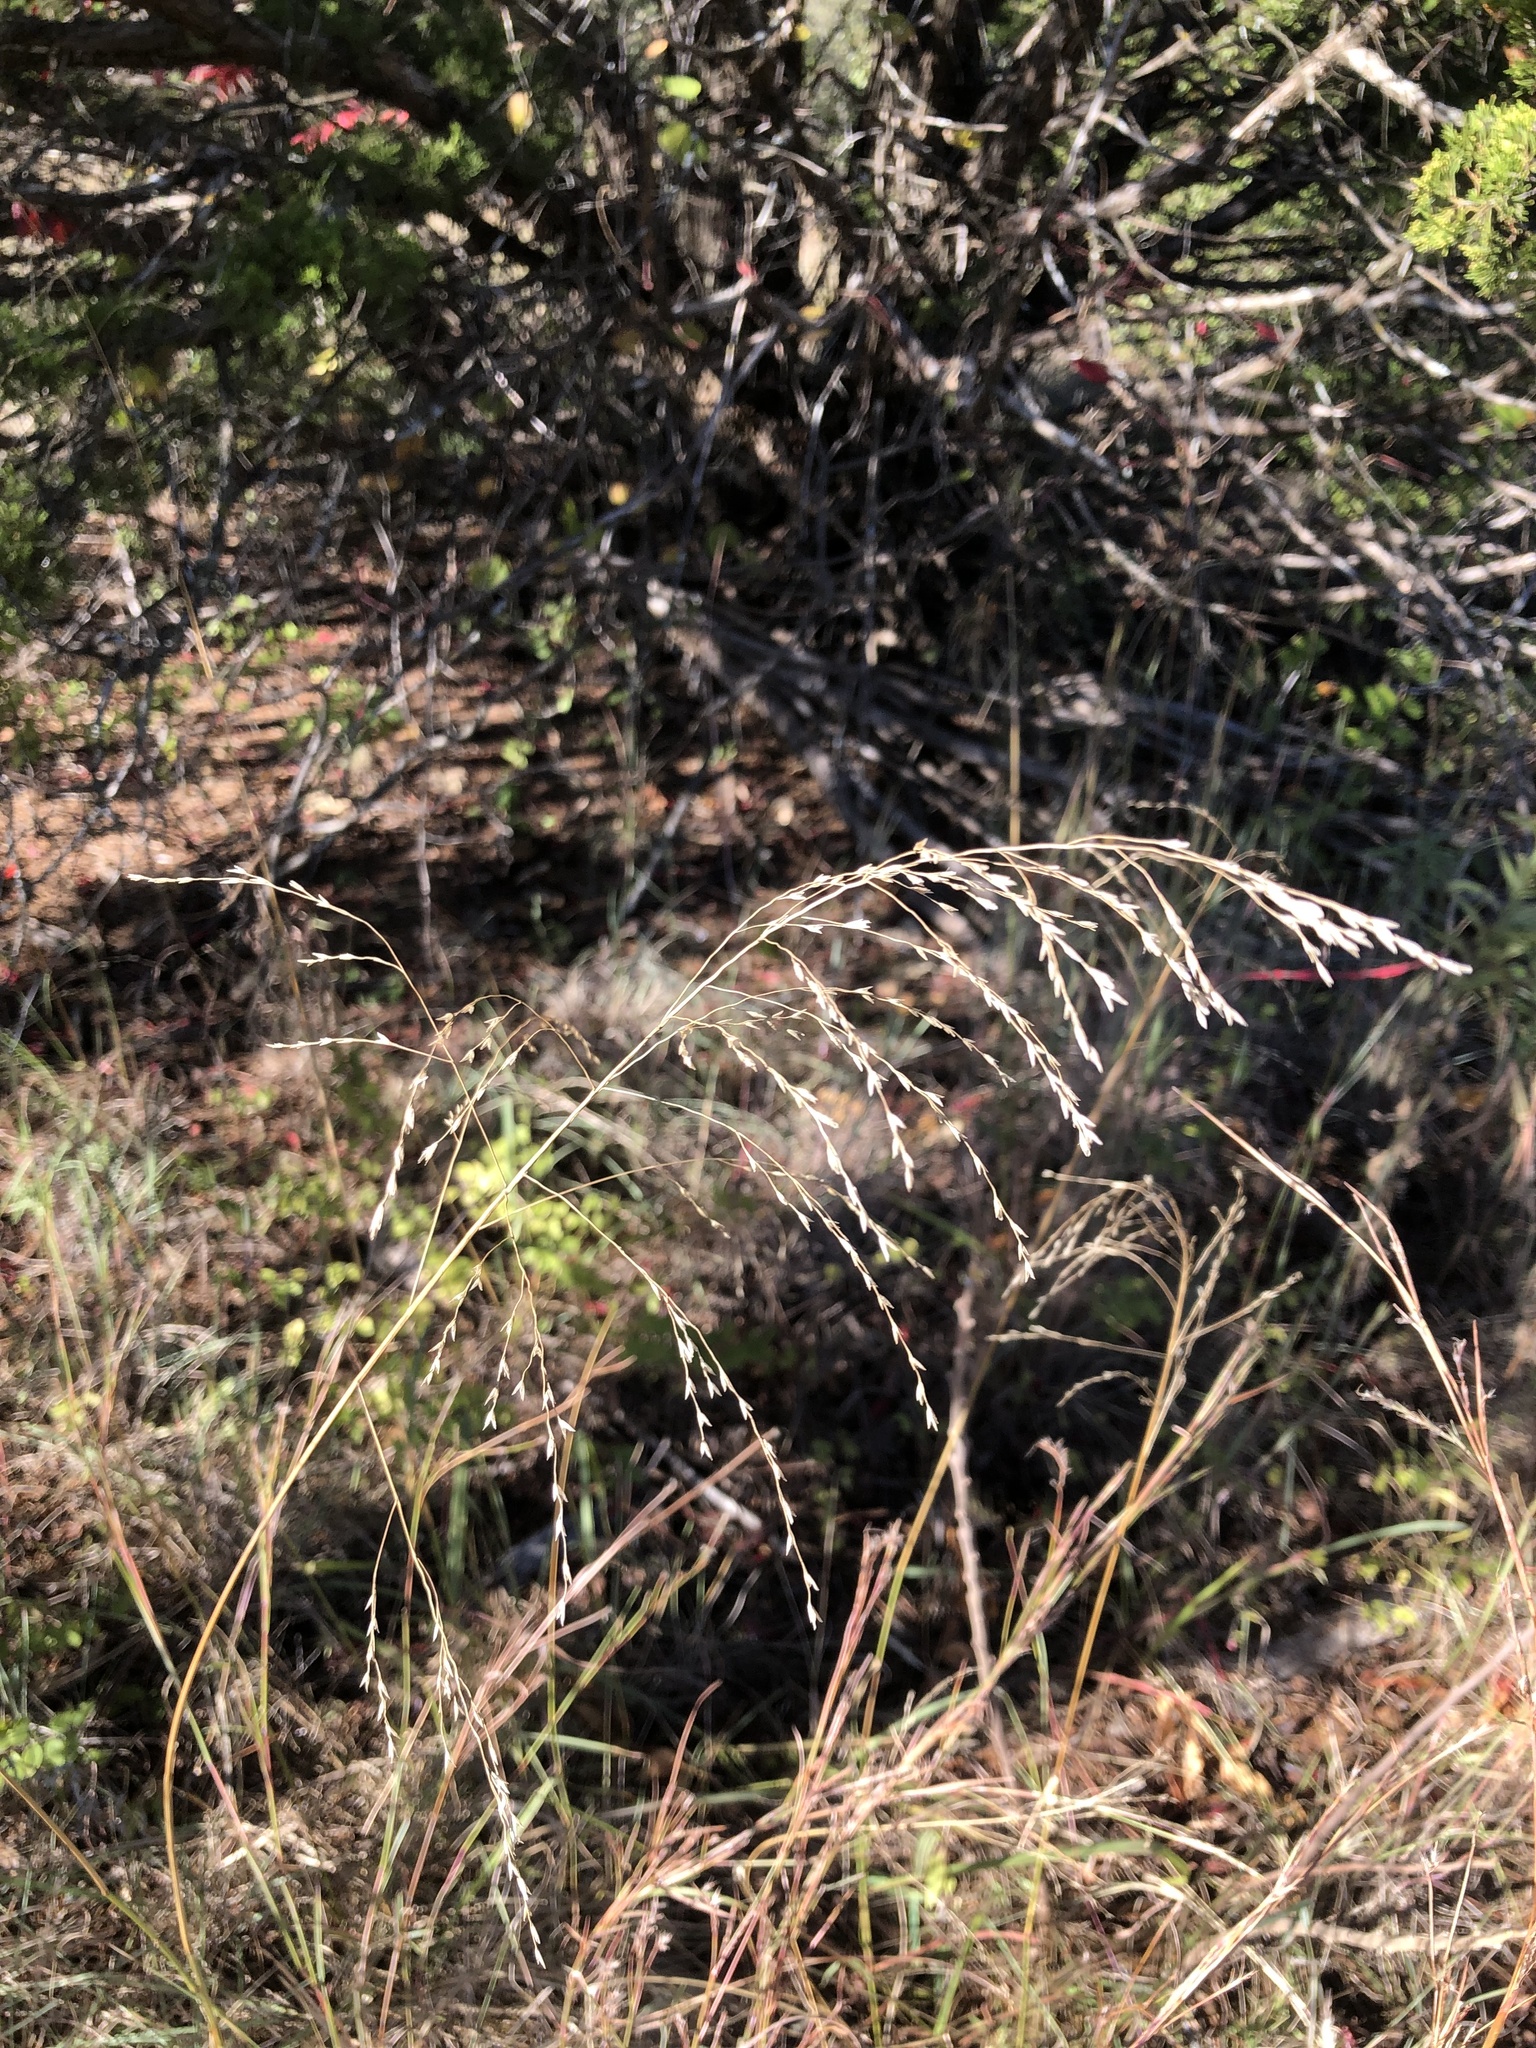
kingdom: Plantae
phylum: Tracheophyta
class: Liliopsida
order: Poales
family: Poaceae
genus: Tridens
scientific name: Tridens flavus
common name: Purpletop
